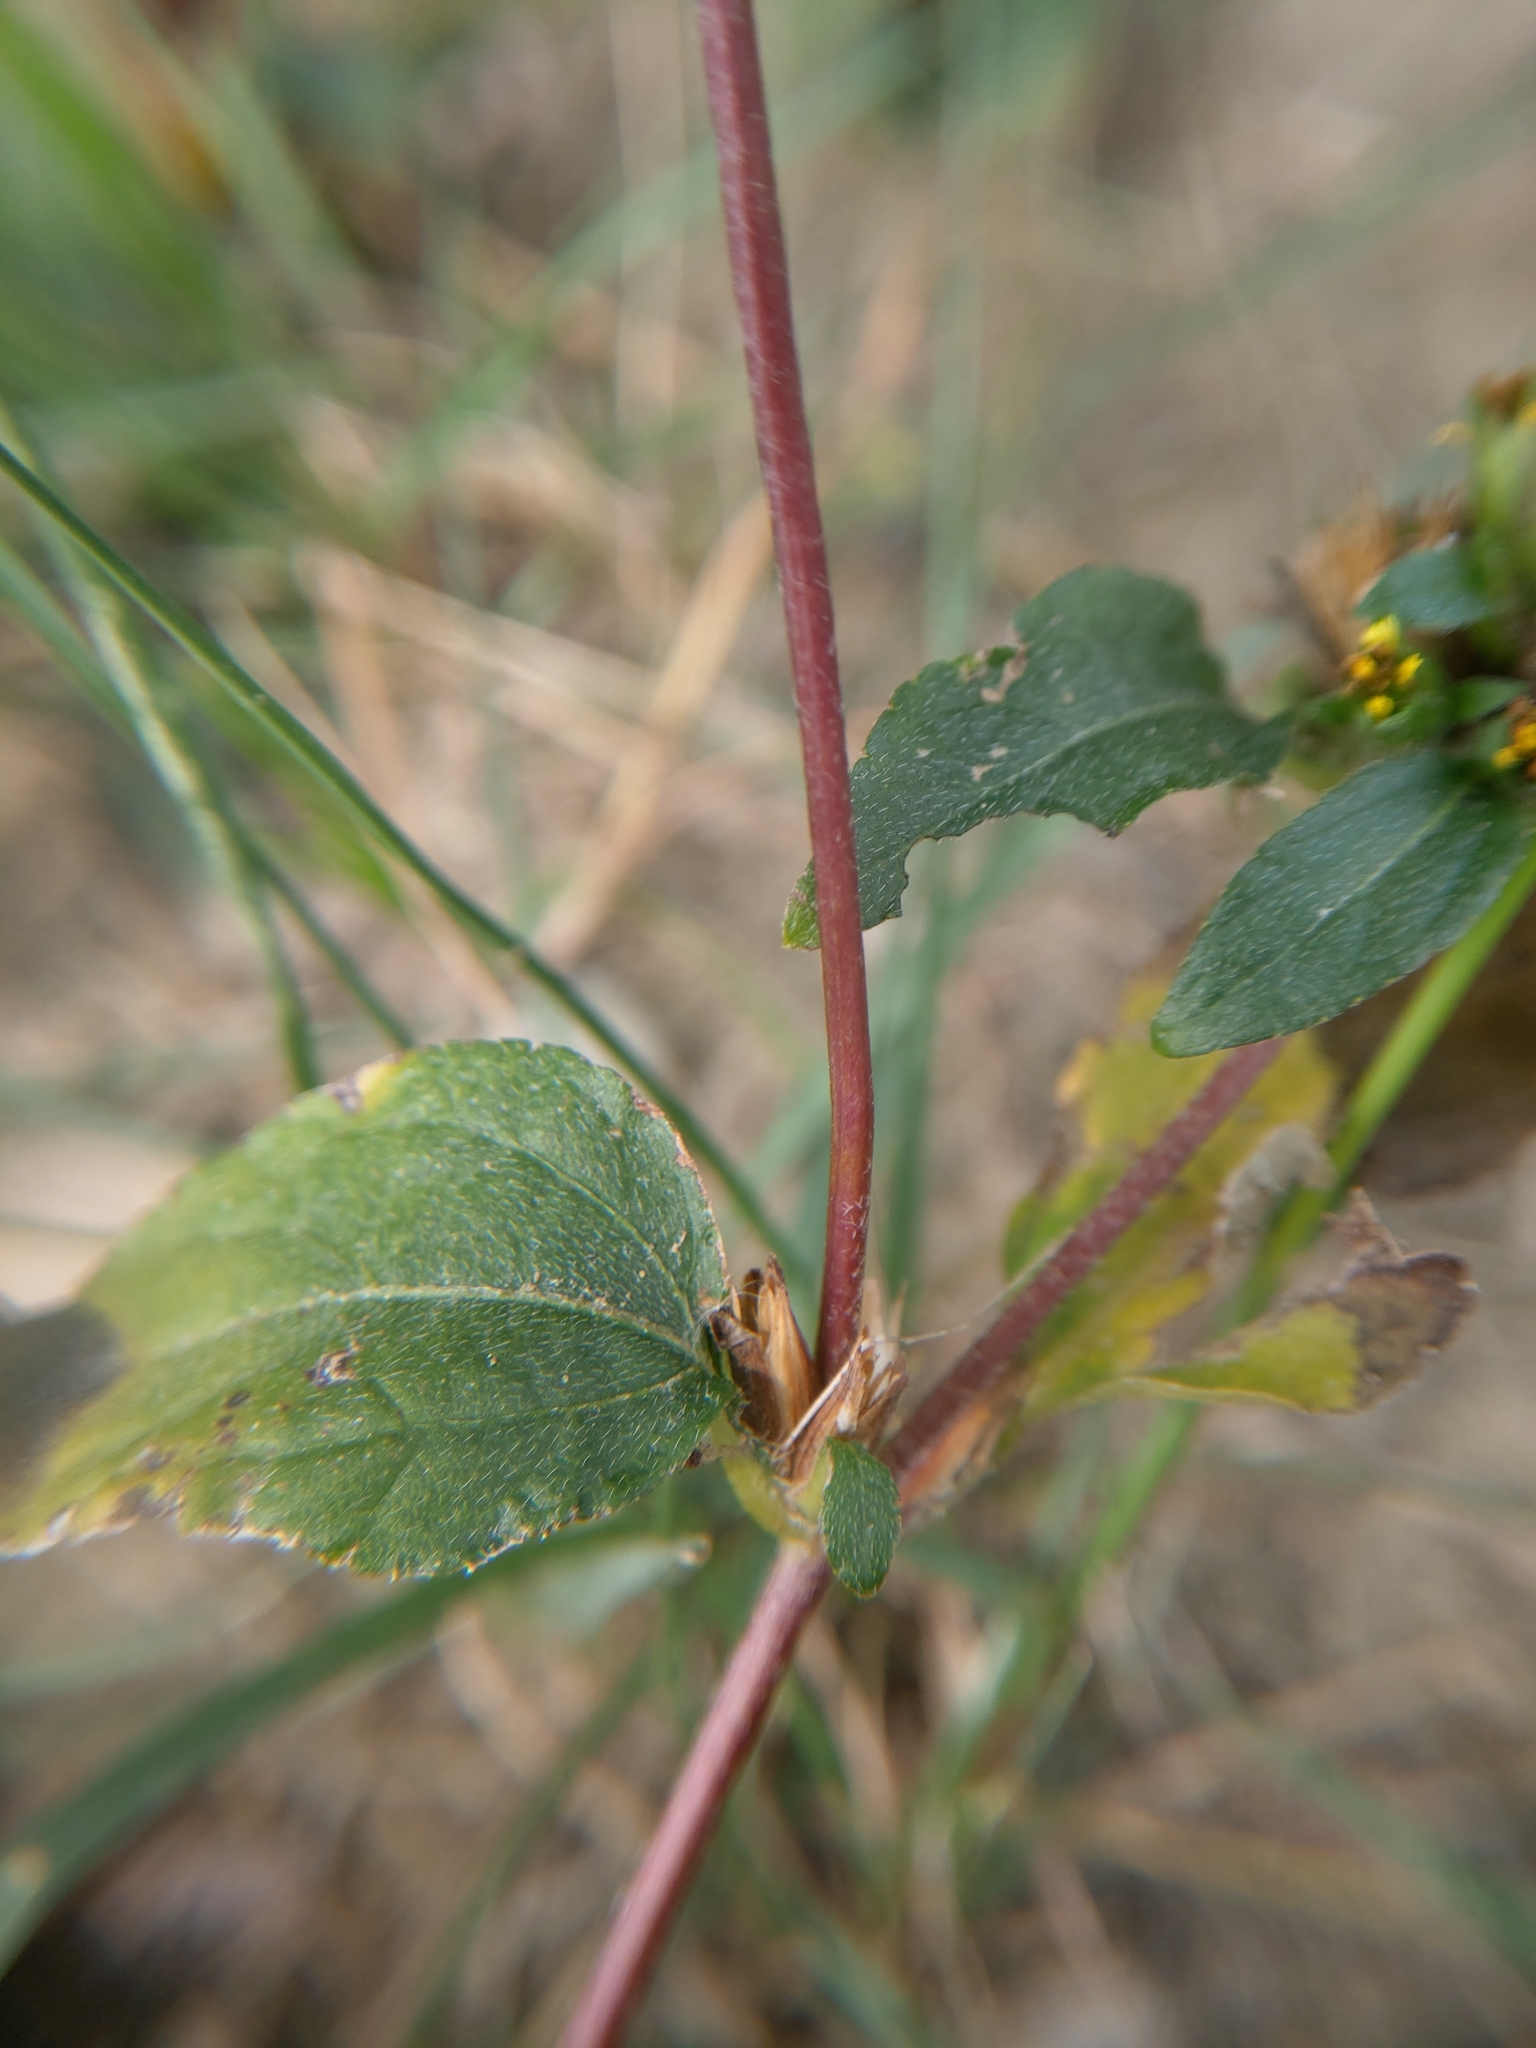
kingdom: Plantae
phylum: Tracheophyta
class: Magnoliopsida
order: Asterales
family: Asteraceae
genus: Synedrella
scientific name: Synedrella nodiflora
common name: Nodeweed
